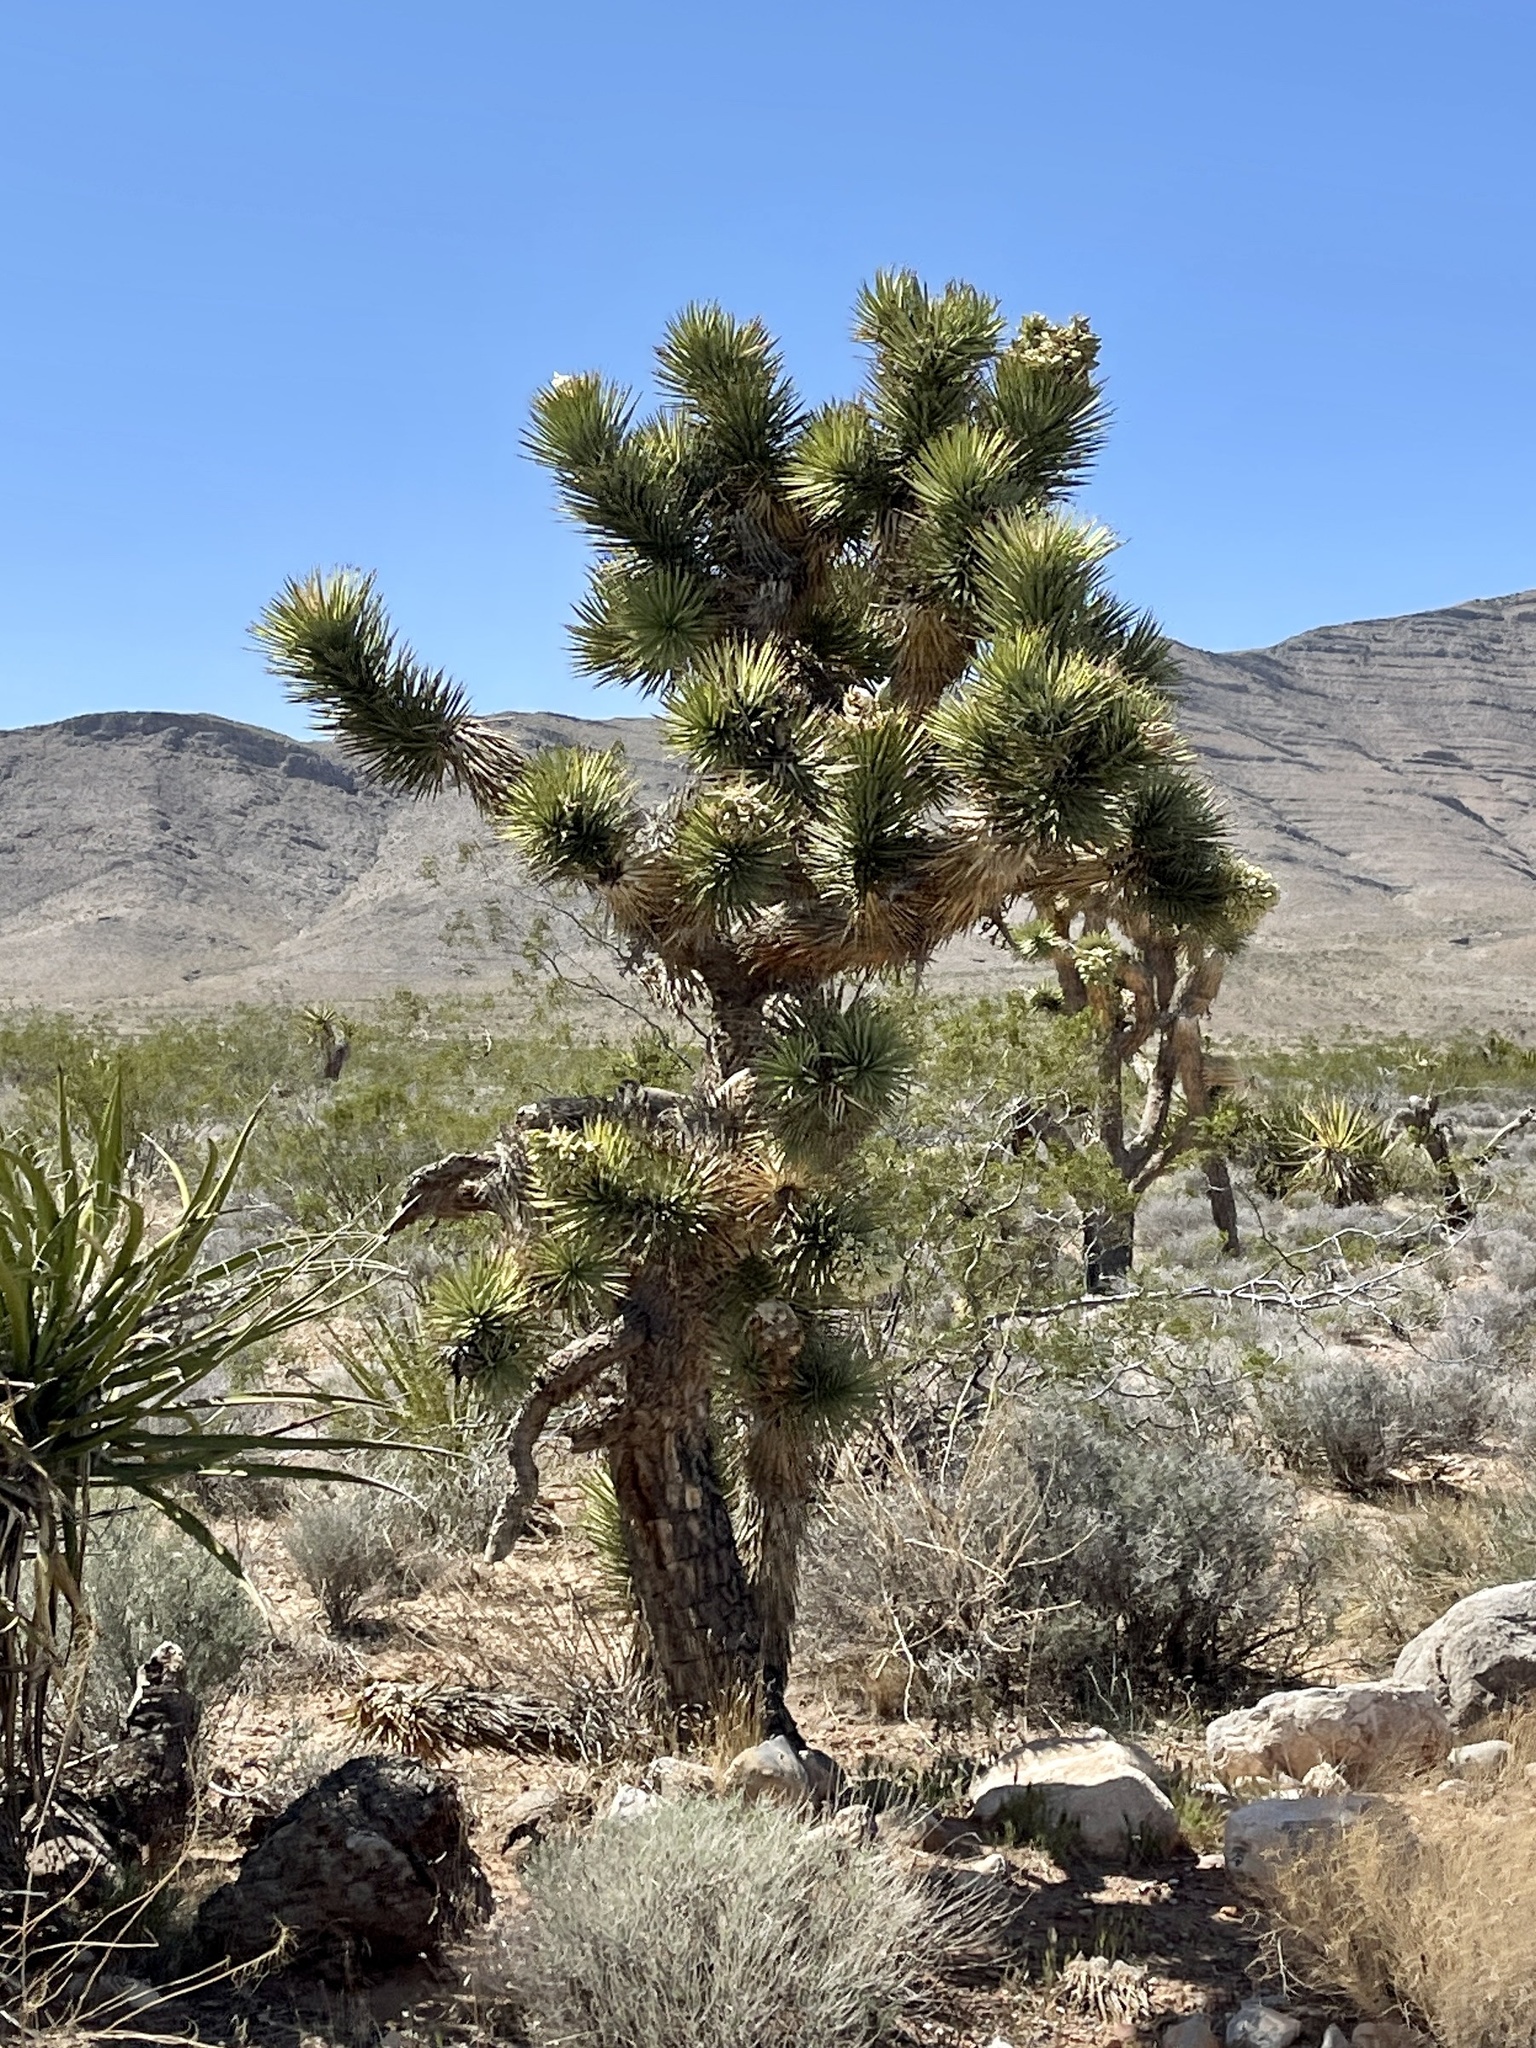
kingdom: Plantae
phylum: Tracheophyta
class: Liliopsida
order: Asparagales
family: Asparagaceae
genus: Yucca
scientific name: Yucca brevifolia
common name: Joshua tree
